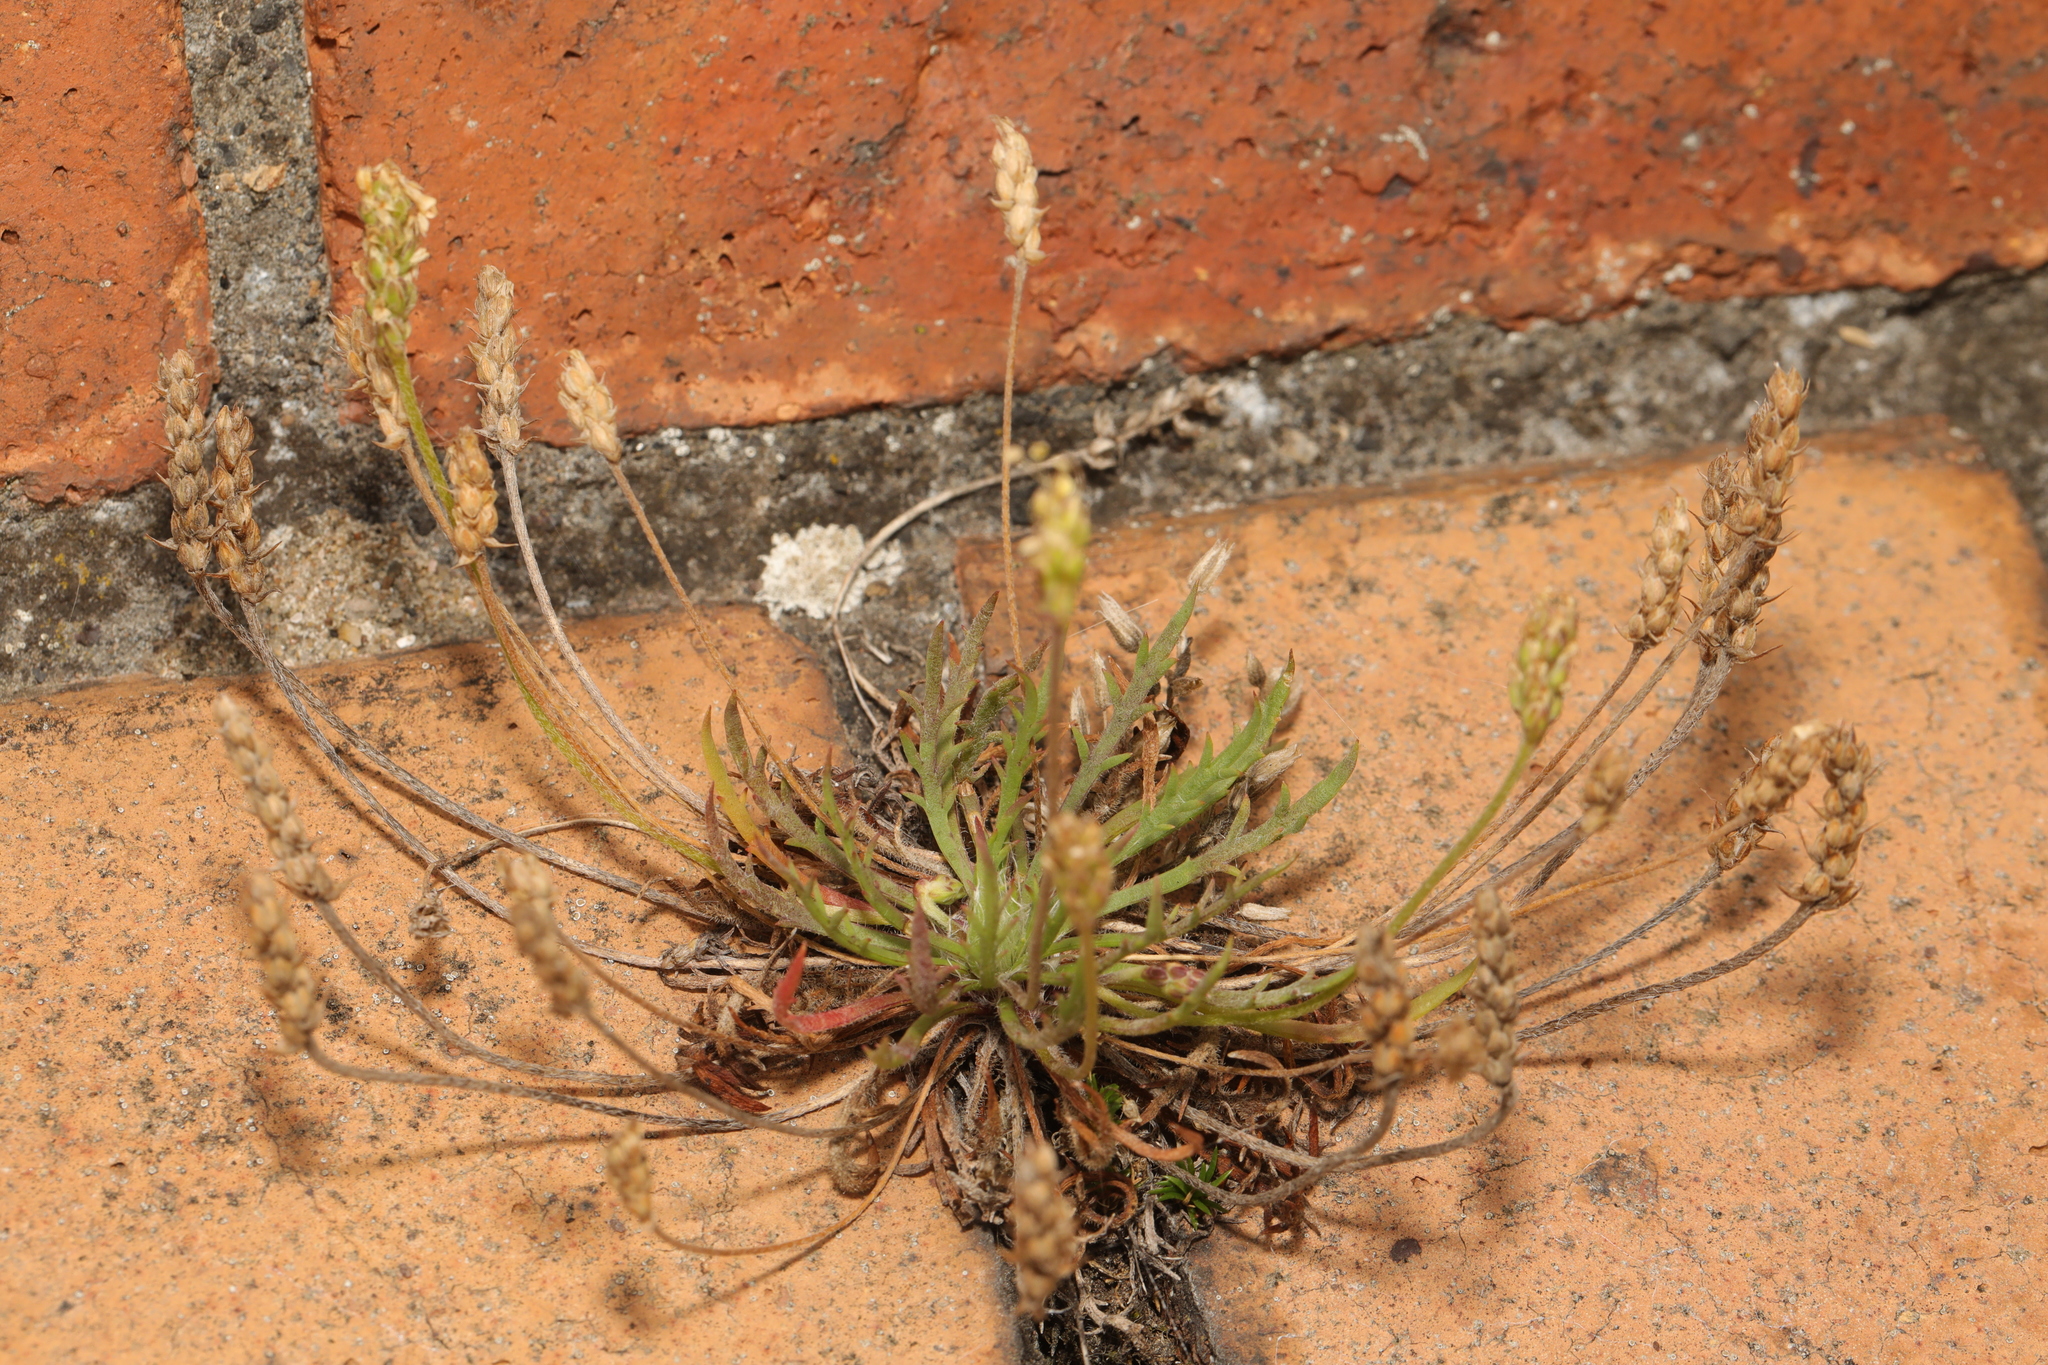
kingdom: Plantae
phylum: Tracheophyta
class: Magnoliopsida
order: Lamiales
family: Plantaginaceae
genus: Plantago
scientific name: Plantago coronopus
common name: Buck's-horn plantain
